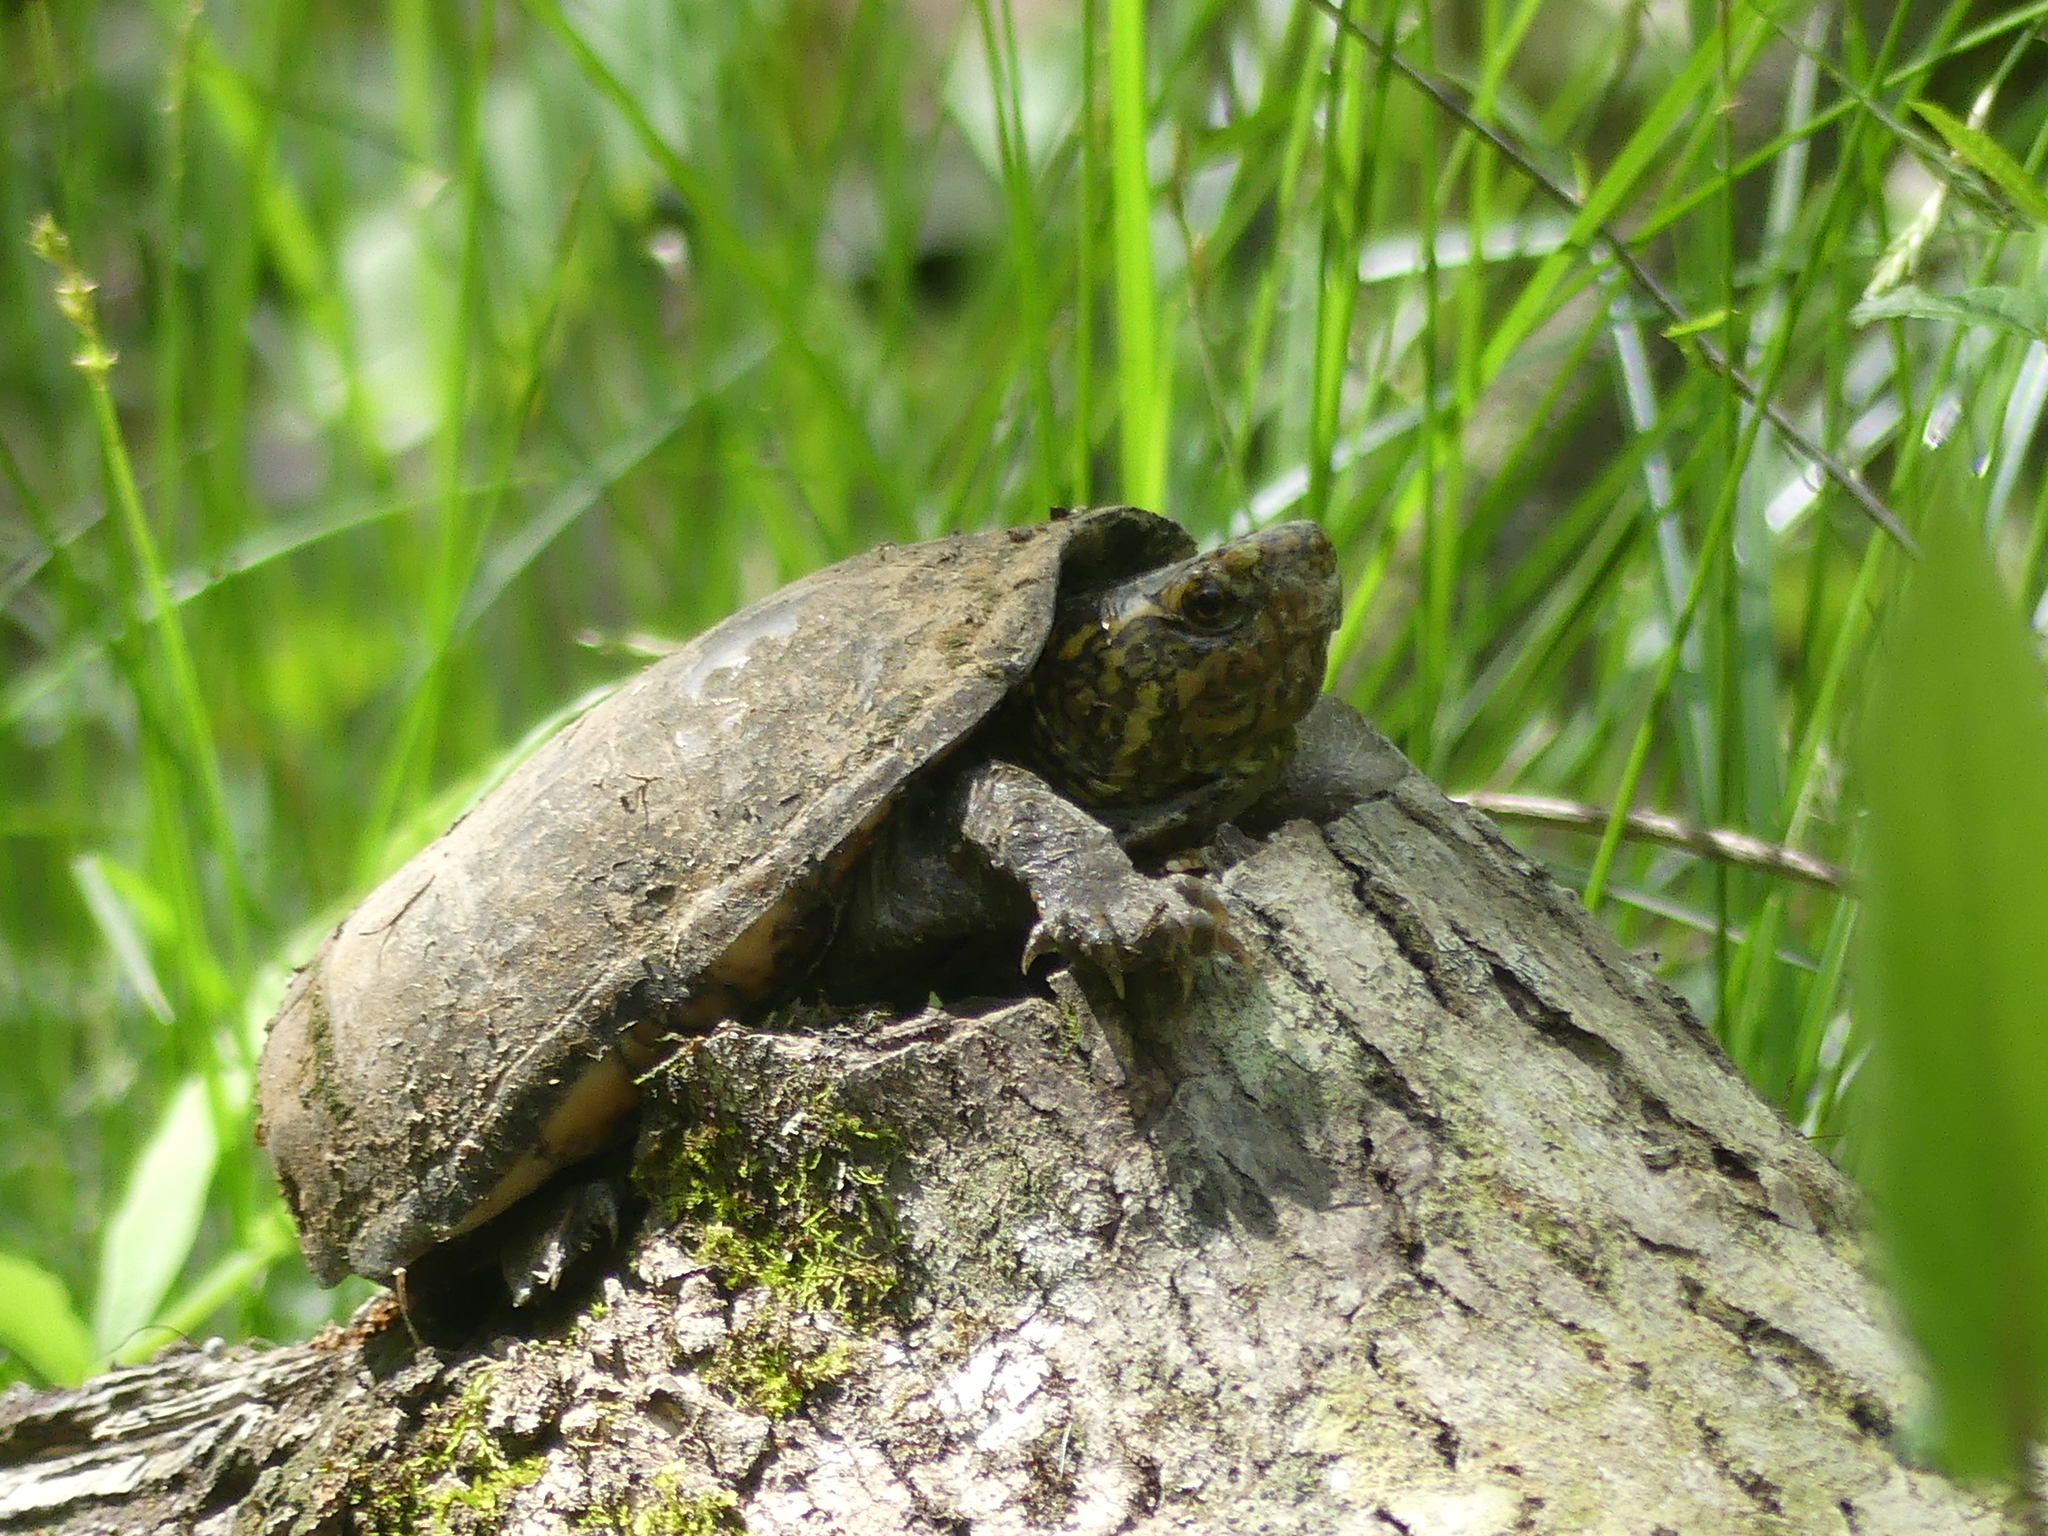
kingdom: Animalia
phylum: Chordata
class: Testudines
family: Kinosternidae
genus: Kinosternon
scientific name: Kinosternon subrubrum
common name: Eastern mud turtle
